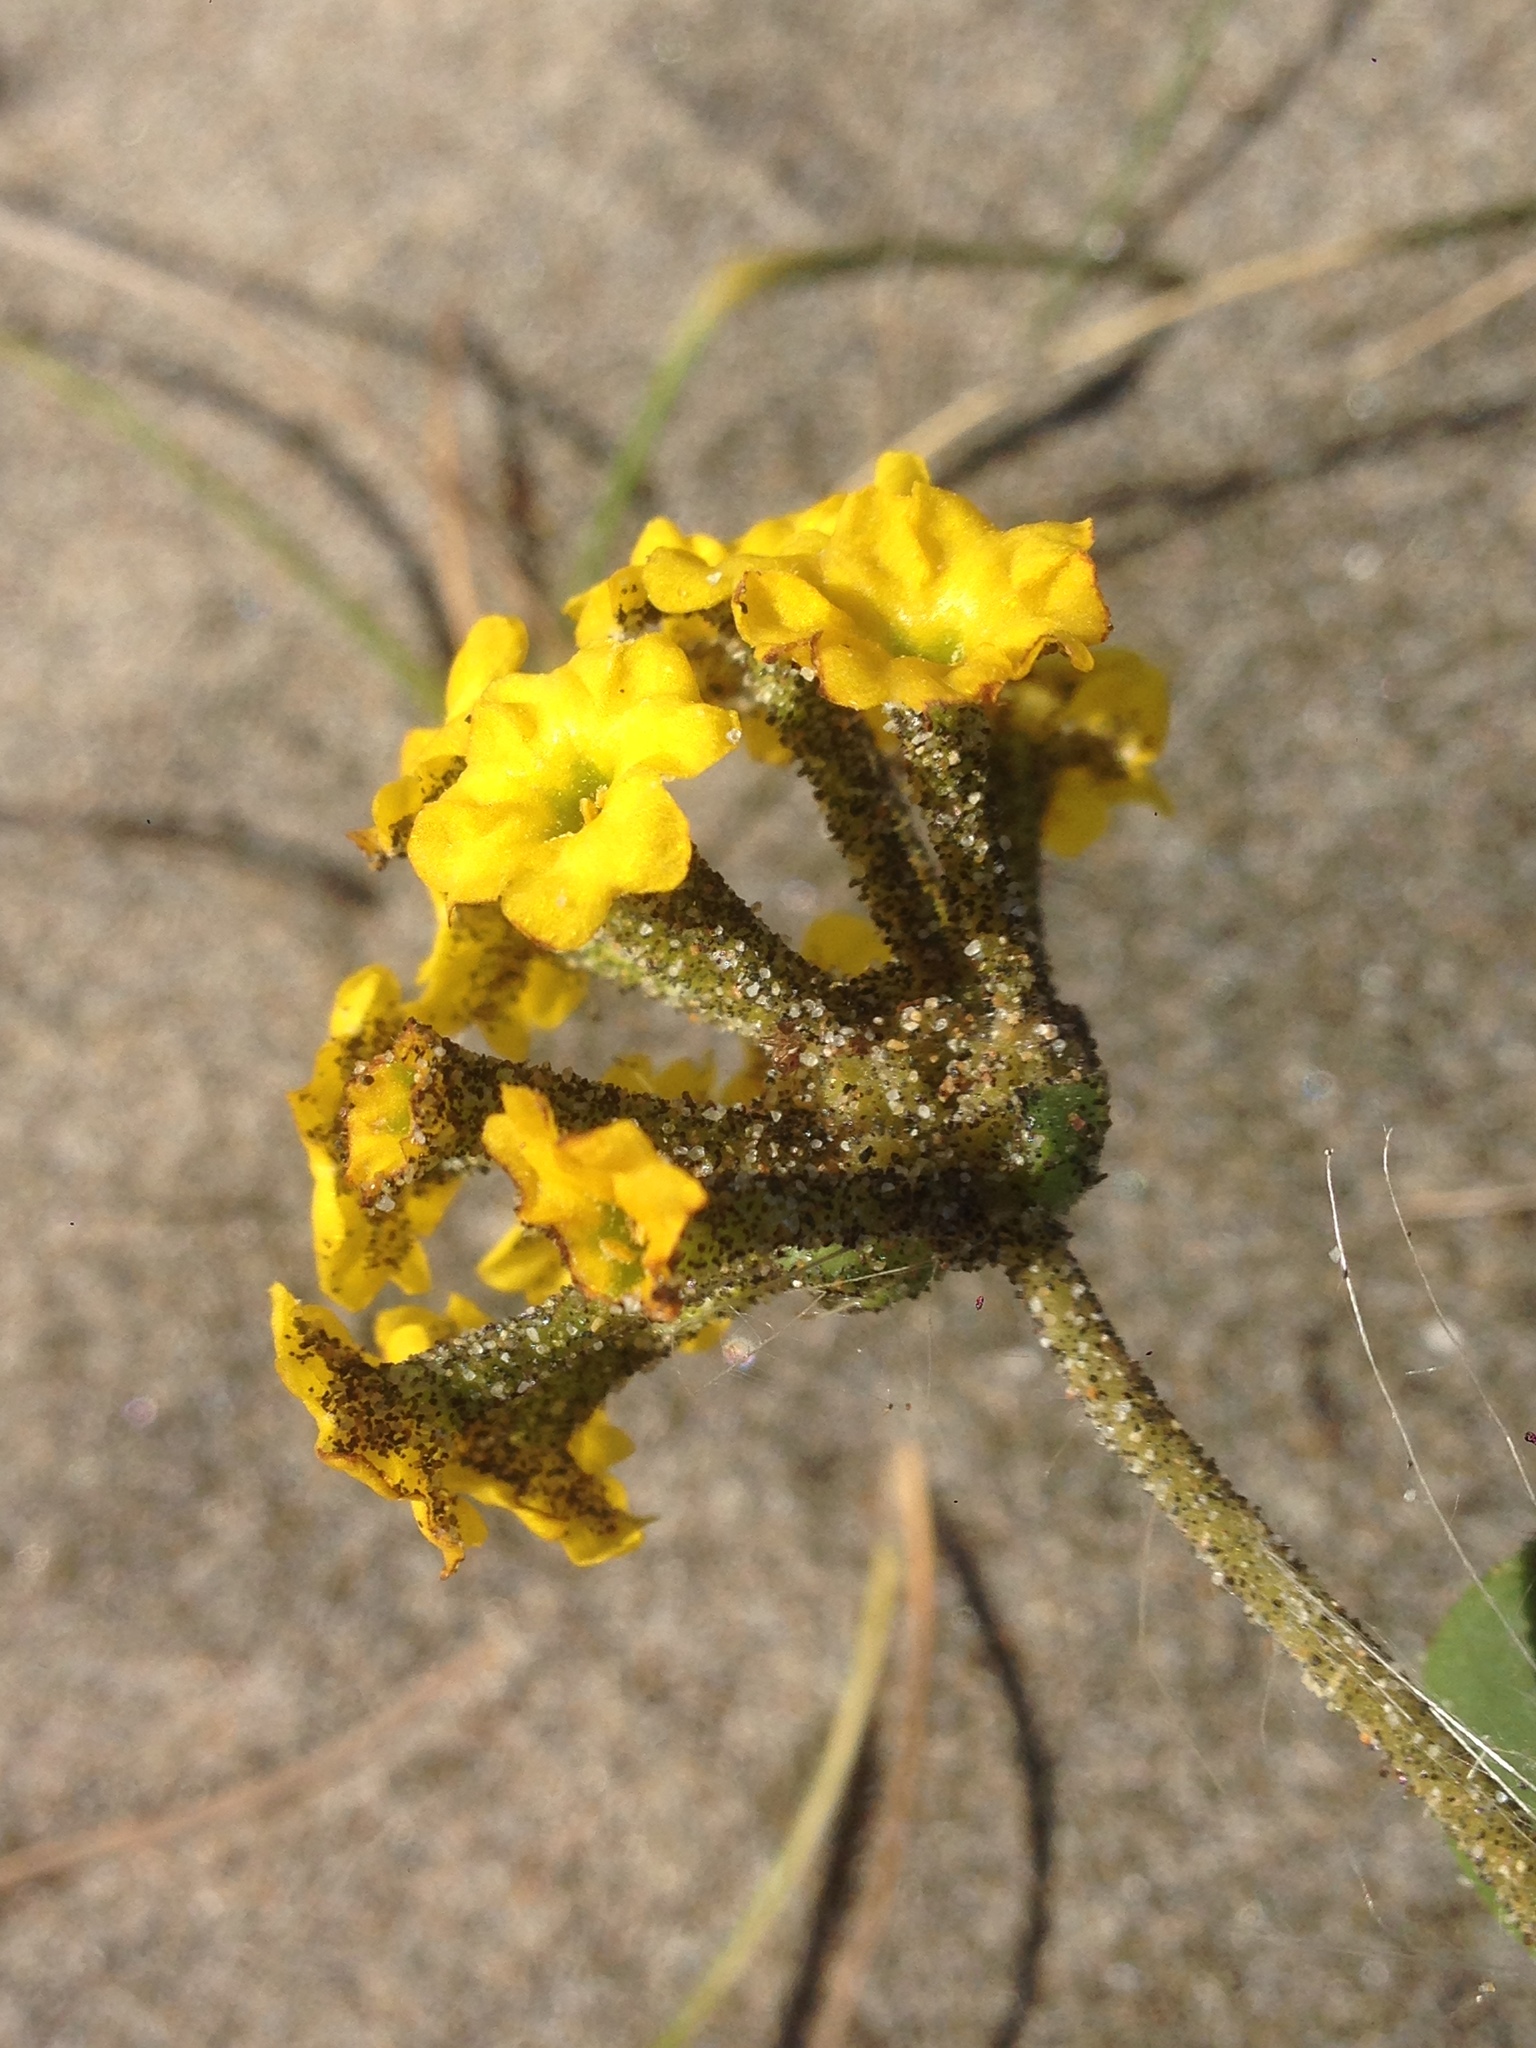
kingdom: Plantae
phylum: Tracheophyta
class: Magnoliopsida
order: Caryophyllales
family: Nyctaginaceae
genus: Abronia
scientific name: Abronia latifolia
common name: Yellow sand-verbena
